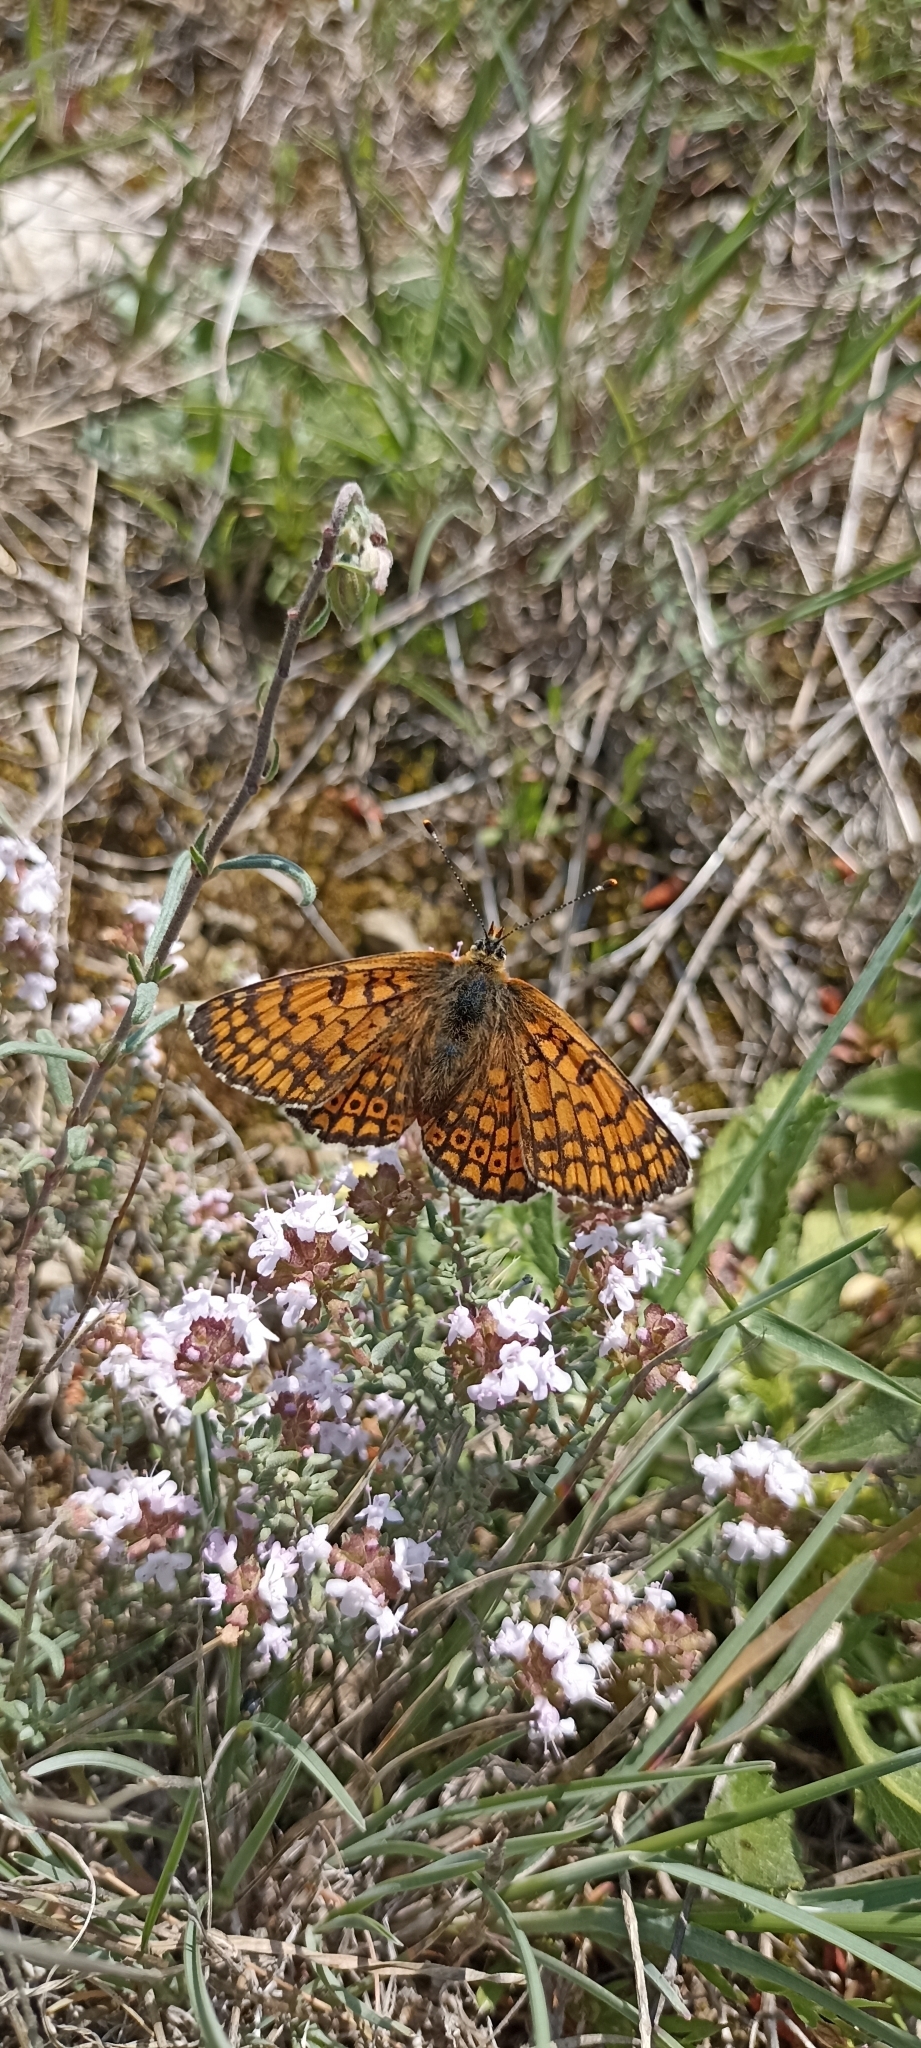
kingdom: Animalia
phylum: Arthropoda
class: Insecta
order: Lepidoptera
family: Nymphalidae
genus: Melitaea
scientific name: Melitaea cinxia
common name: Glanville fritillary
